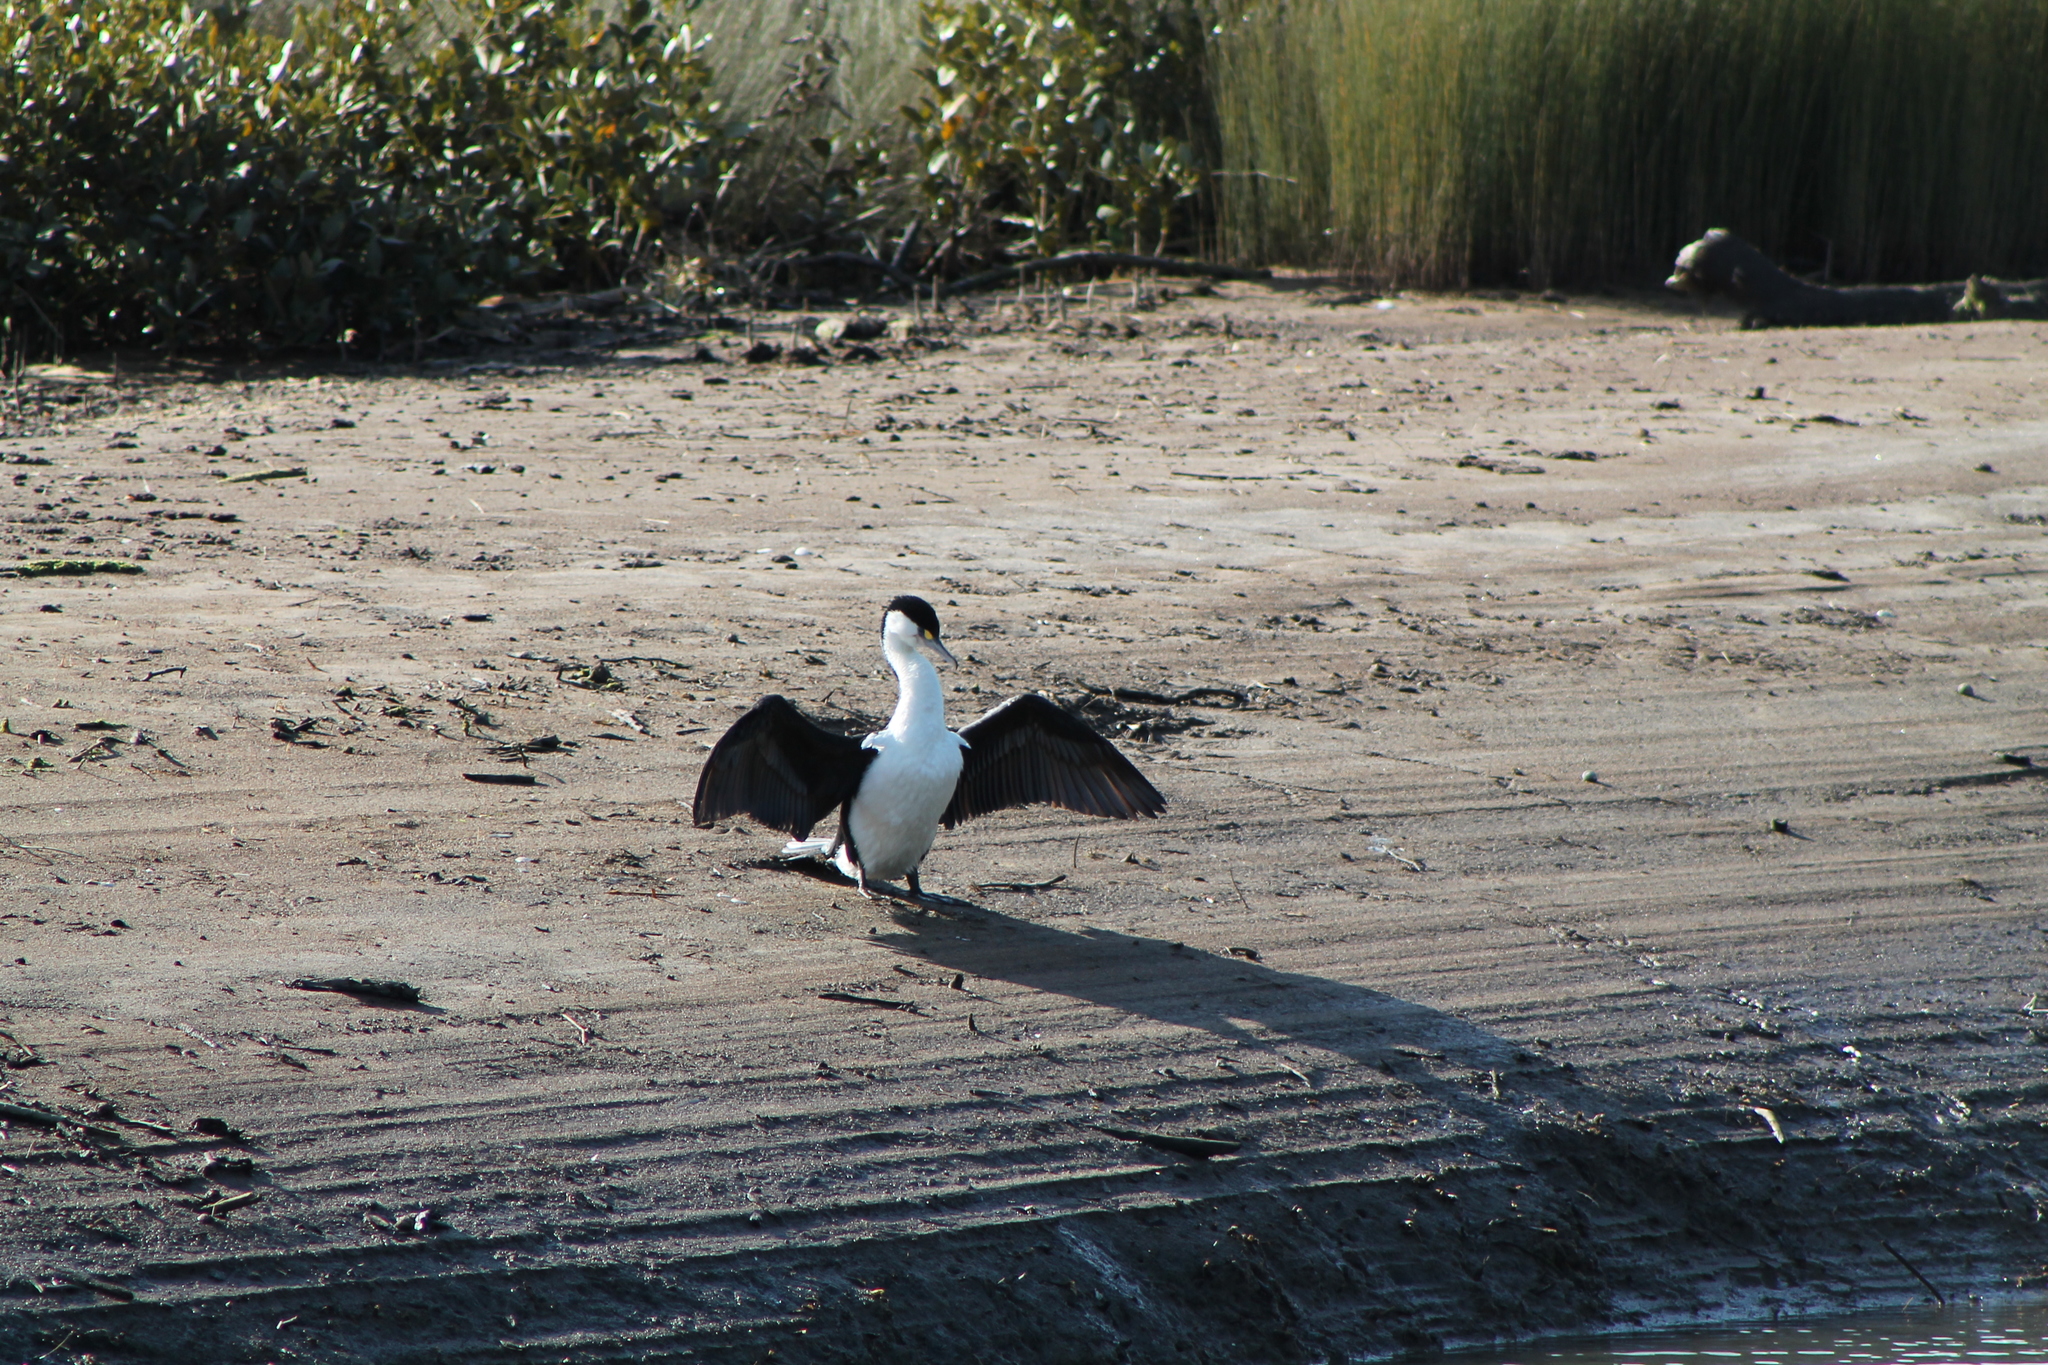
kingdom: Animalia
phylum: Chordata
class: Aves
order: Suliformes
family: Phalacrocoracidae
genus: Phalacrocorax
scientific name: Phalacrocorax varius
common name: Pied cormorant
